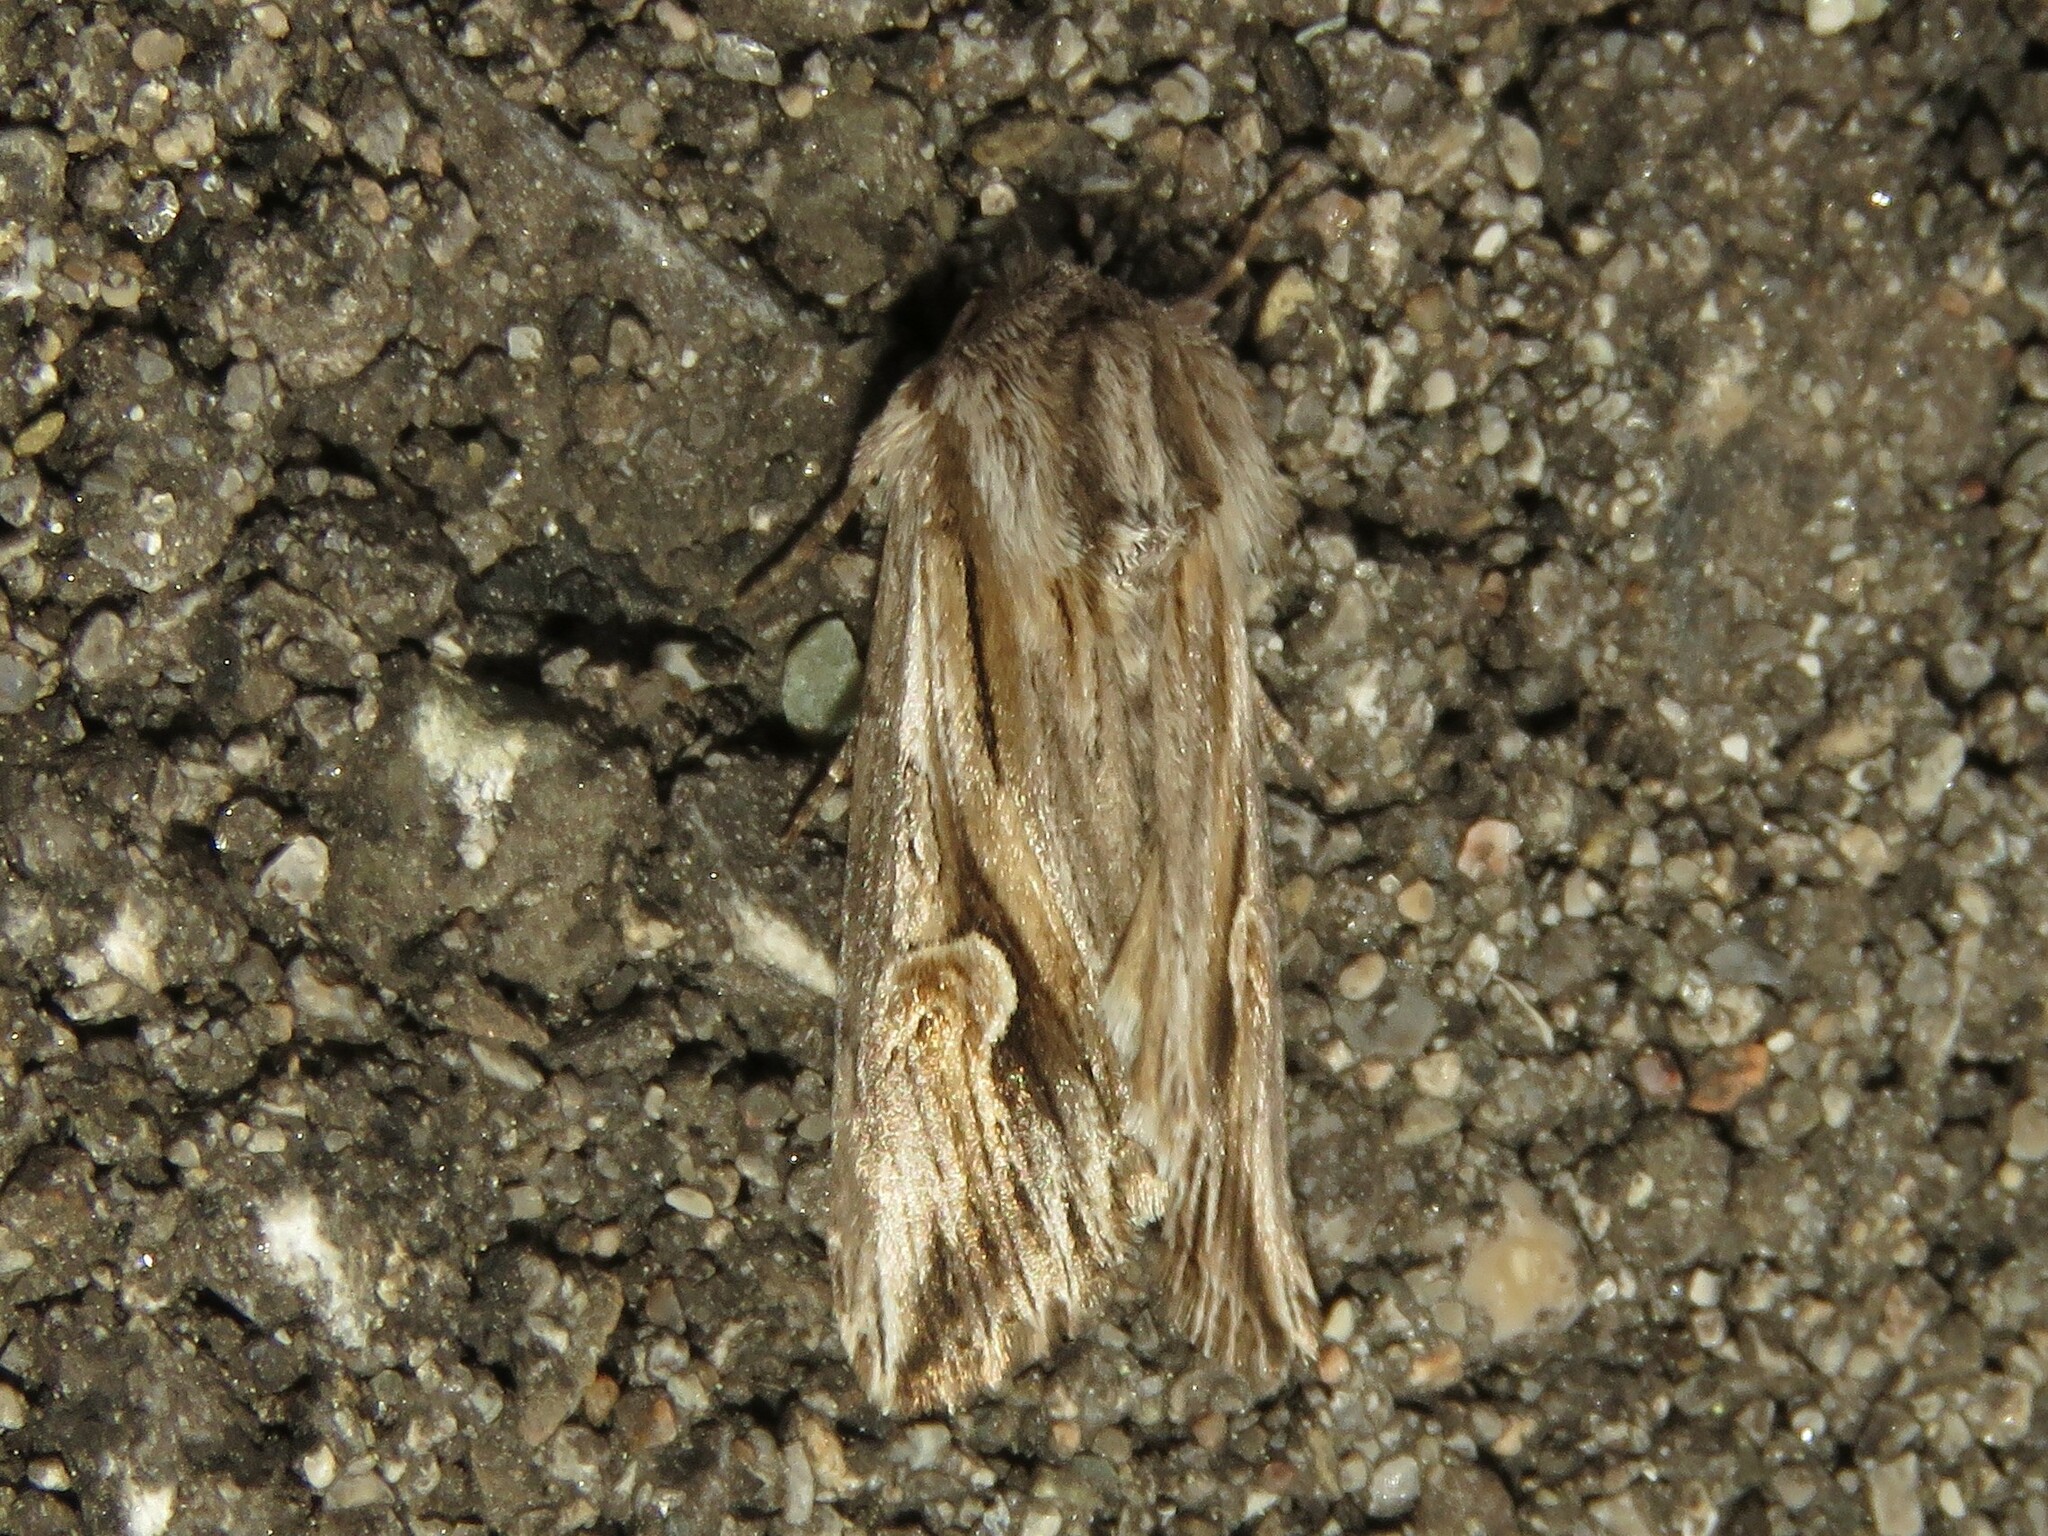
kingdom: Animalia
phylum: Arthropoda
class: Insecta
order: Lepidoptera
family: Noctuidae
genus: Nedra
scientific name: Nedra ramosula
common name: Gray half-spot
